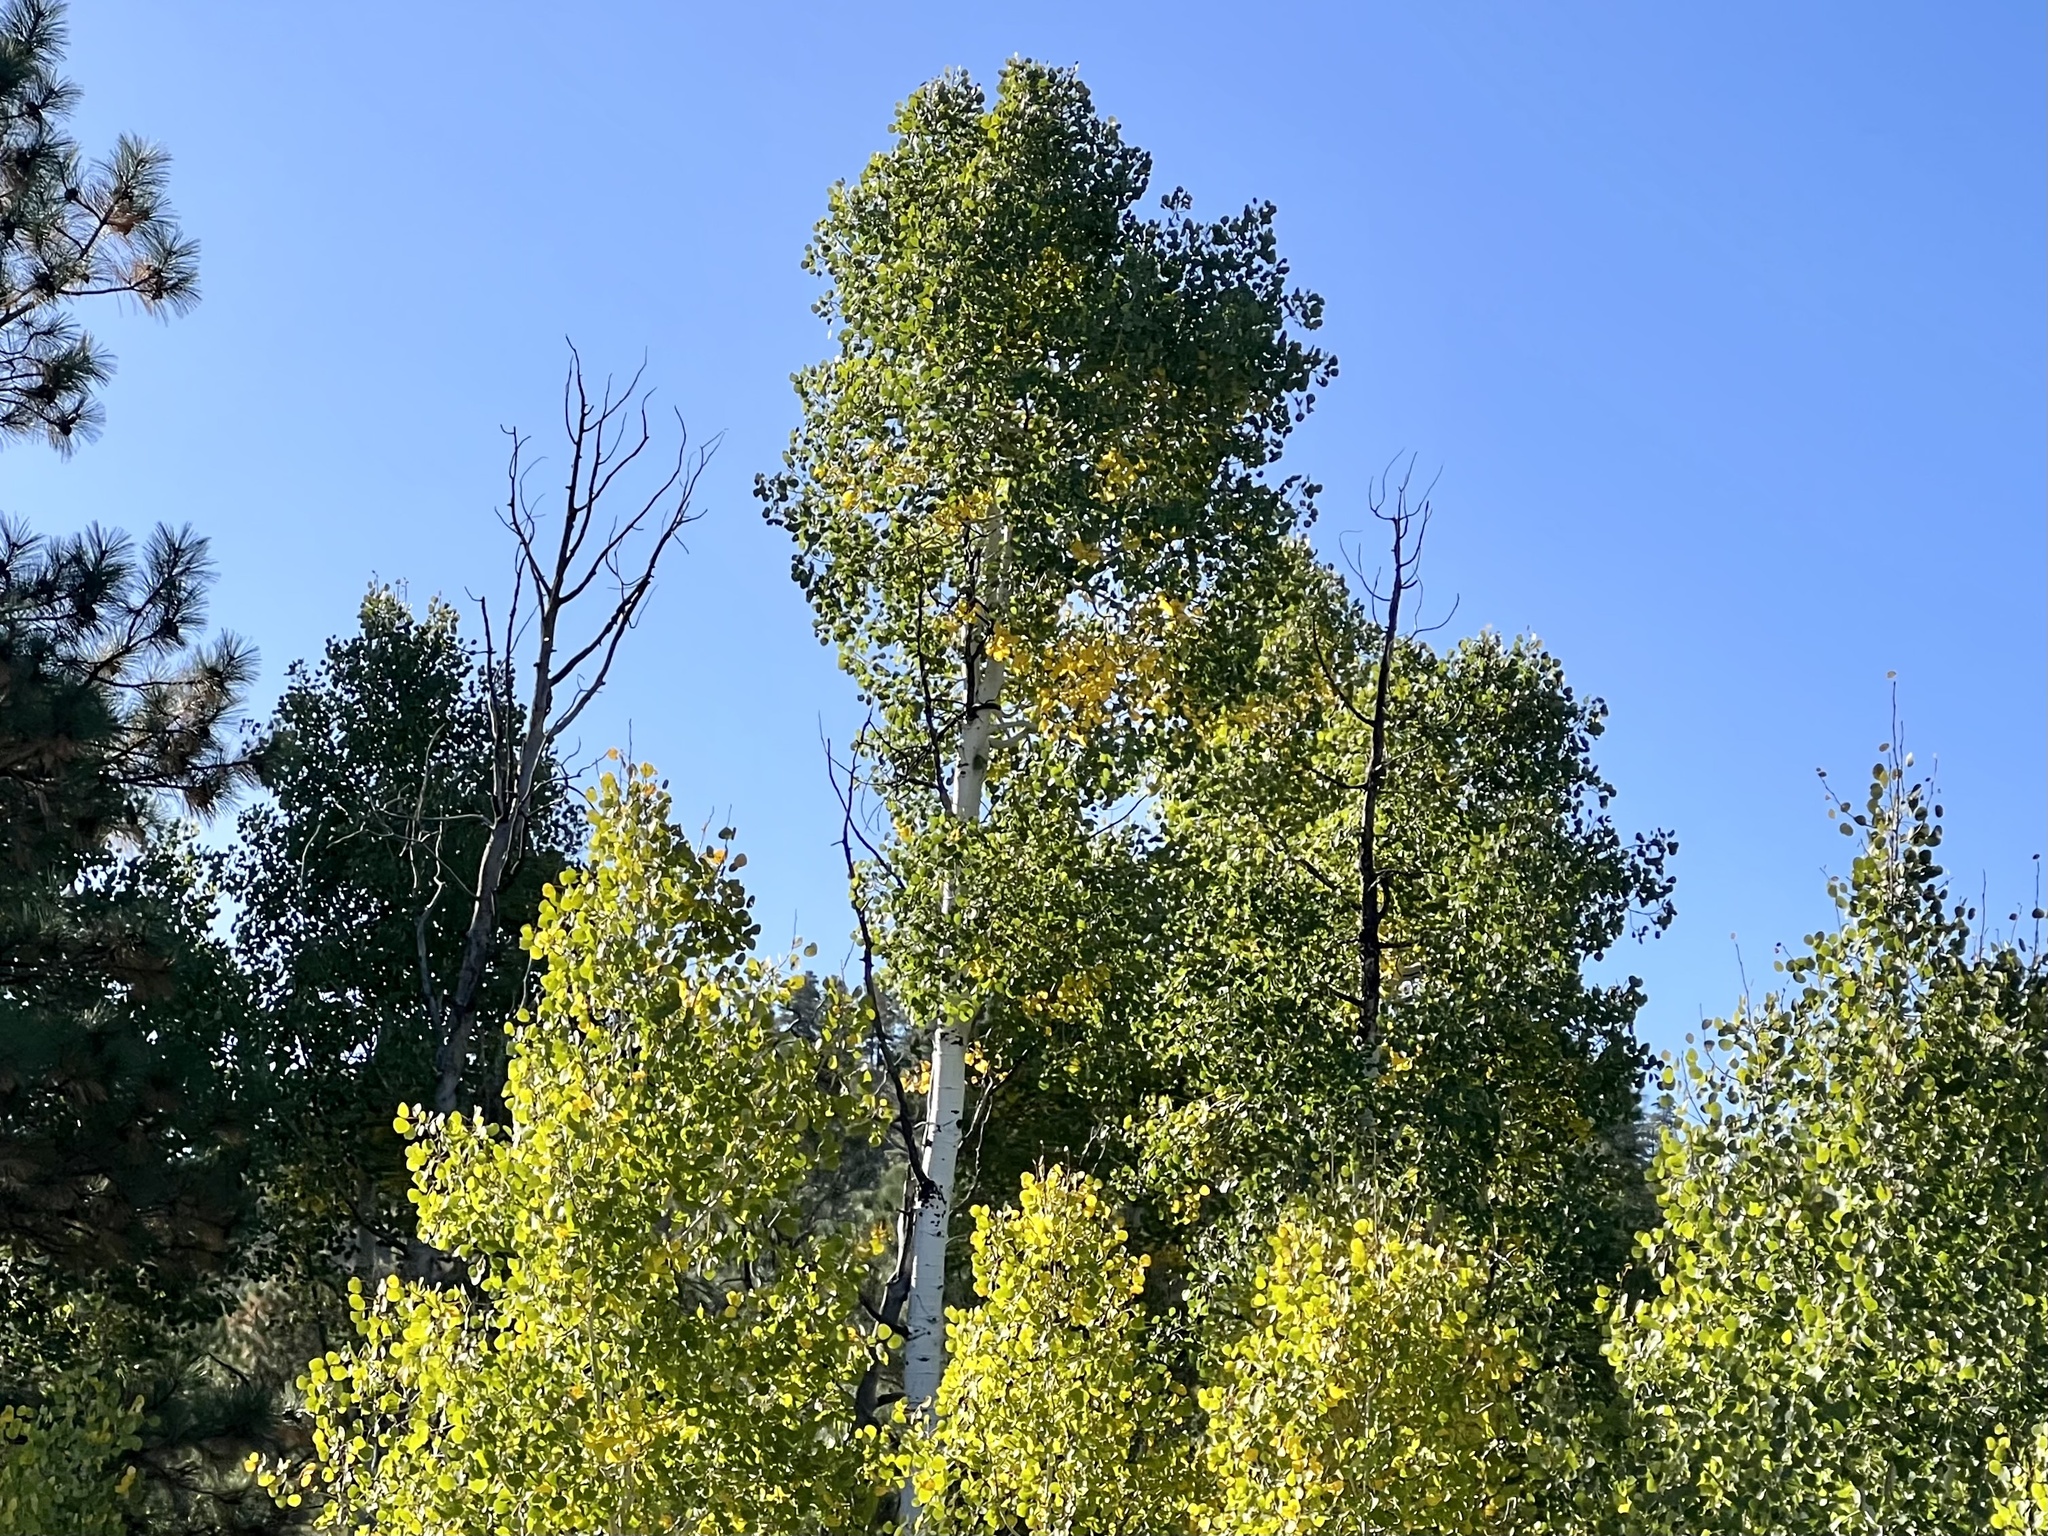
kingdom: Plantae
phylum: Tracheophyta
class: Magnoliopsida
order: Malpighiales
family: Salicaceae
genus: Populus
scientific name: Populus tremuloides
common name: Quaking aspen
